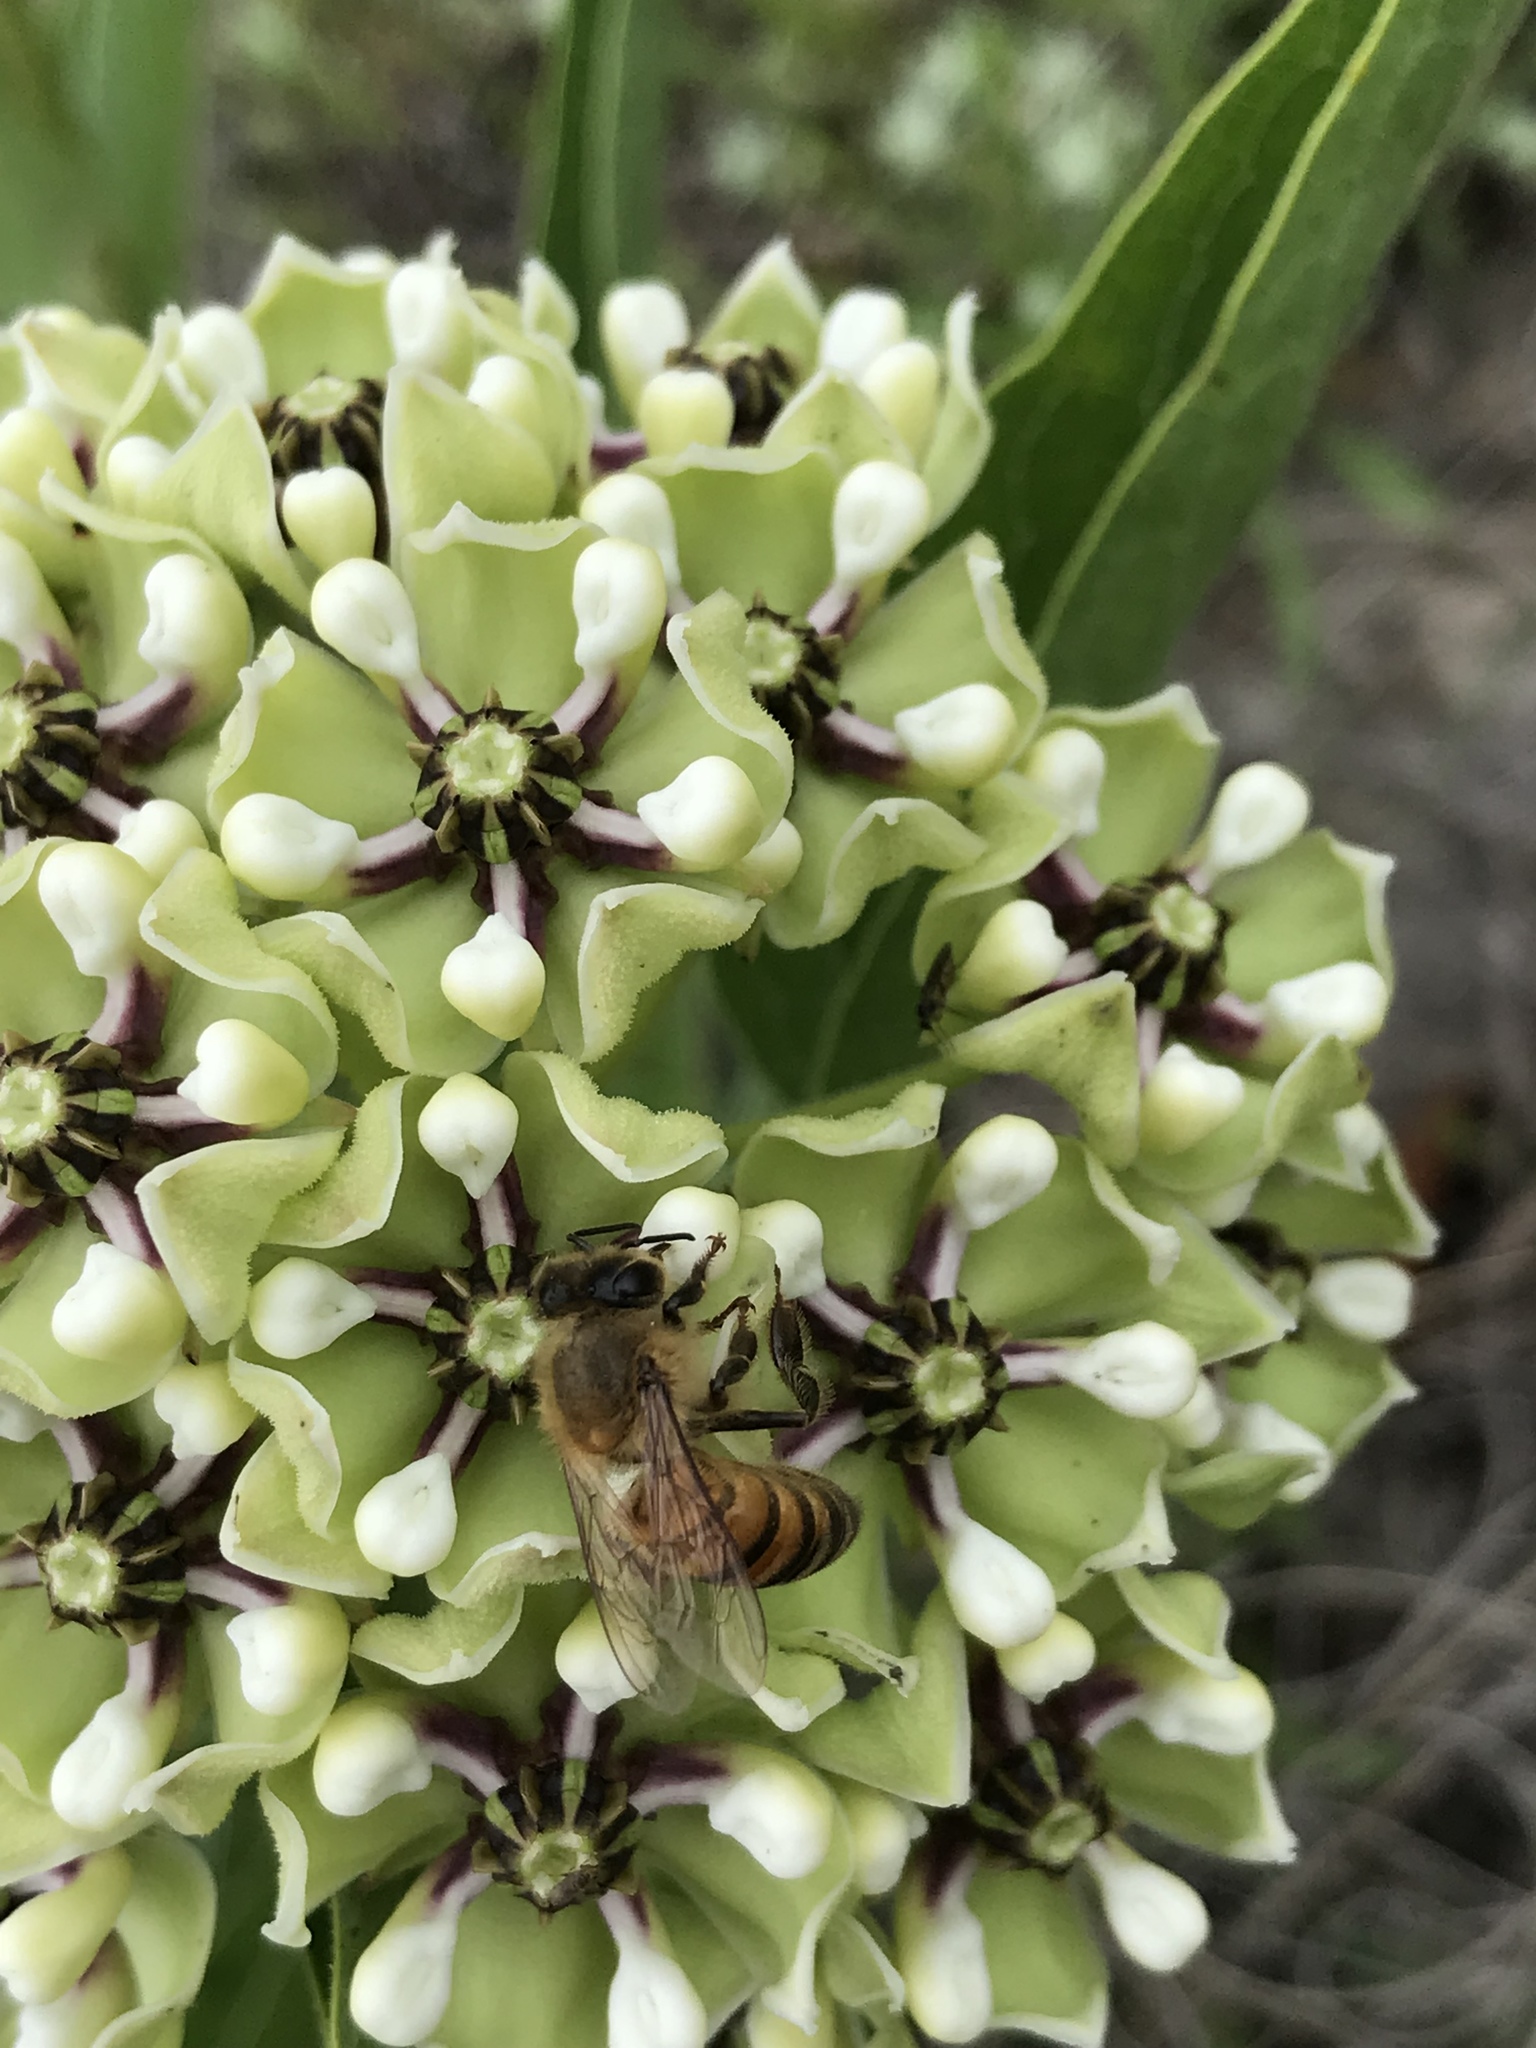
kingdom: Animalia
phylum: Arthropoda
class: Insecta
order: Hymenoptera
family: Apidae
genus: Apis
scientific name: Apis mellifera
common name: Honey bee
